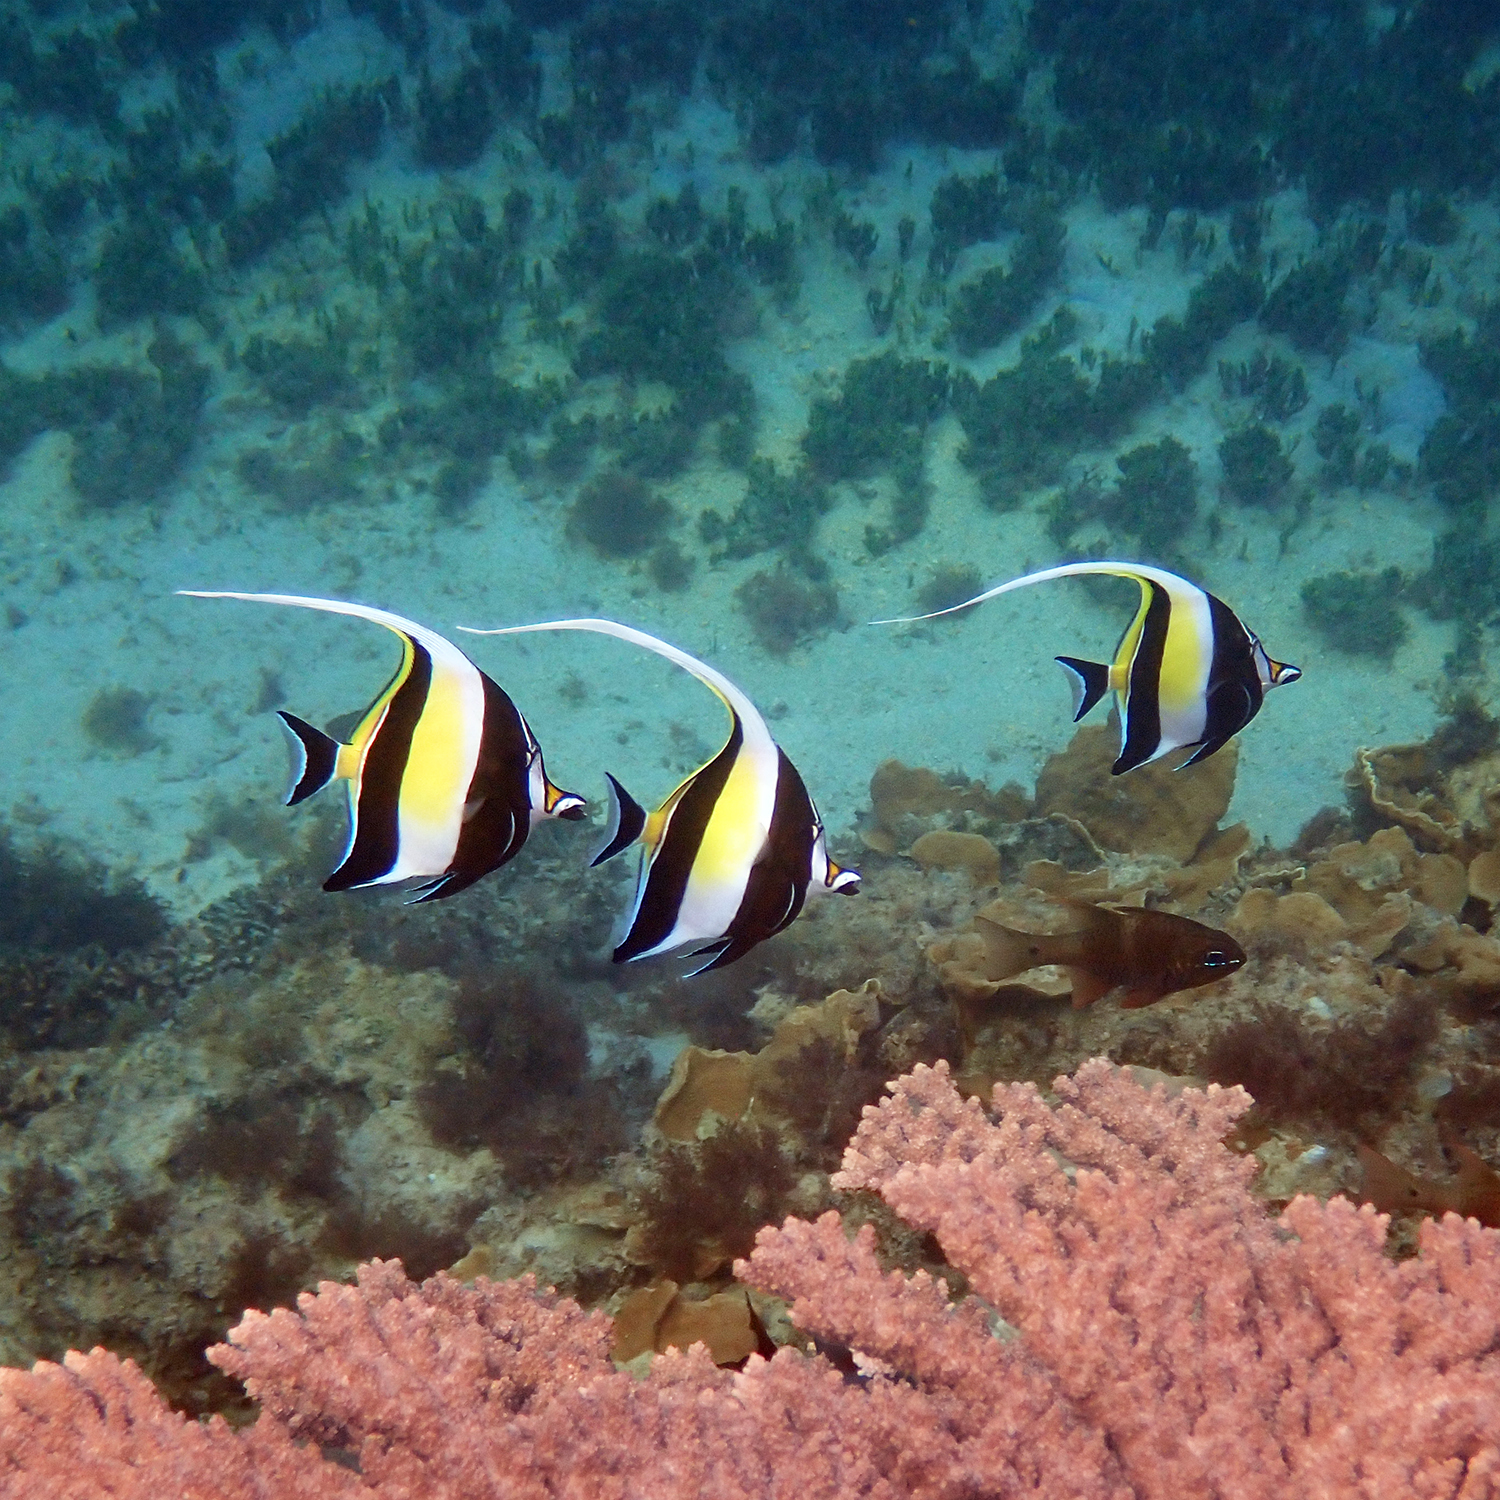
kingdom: Animalia
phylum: Chordata
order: Perciformes
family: Zanclidae
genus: Zanclus
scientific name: Zanclus cornutus
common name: Moorish idol
